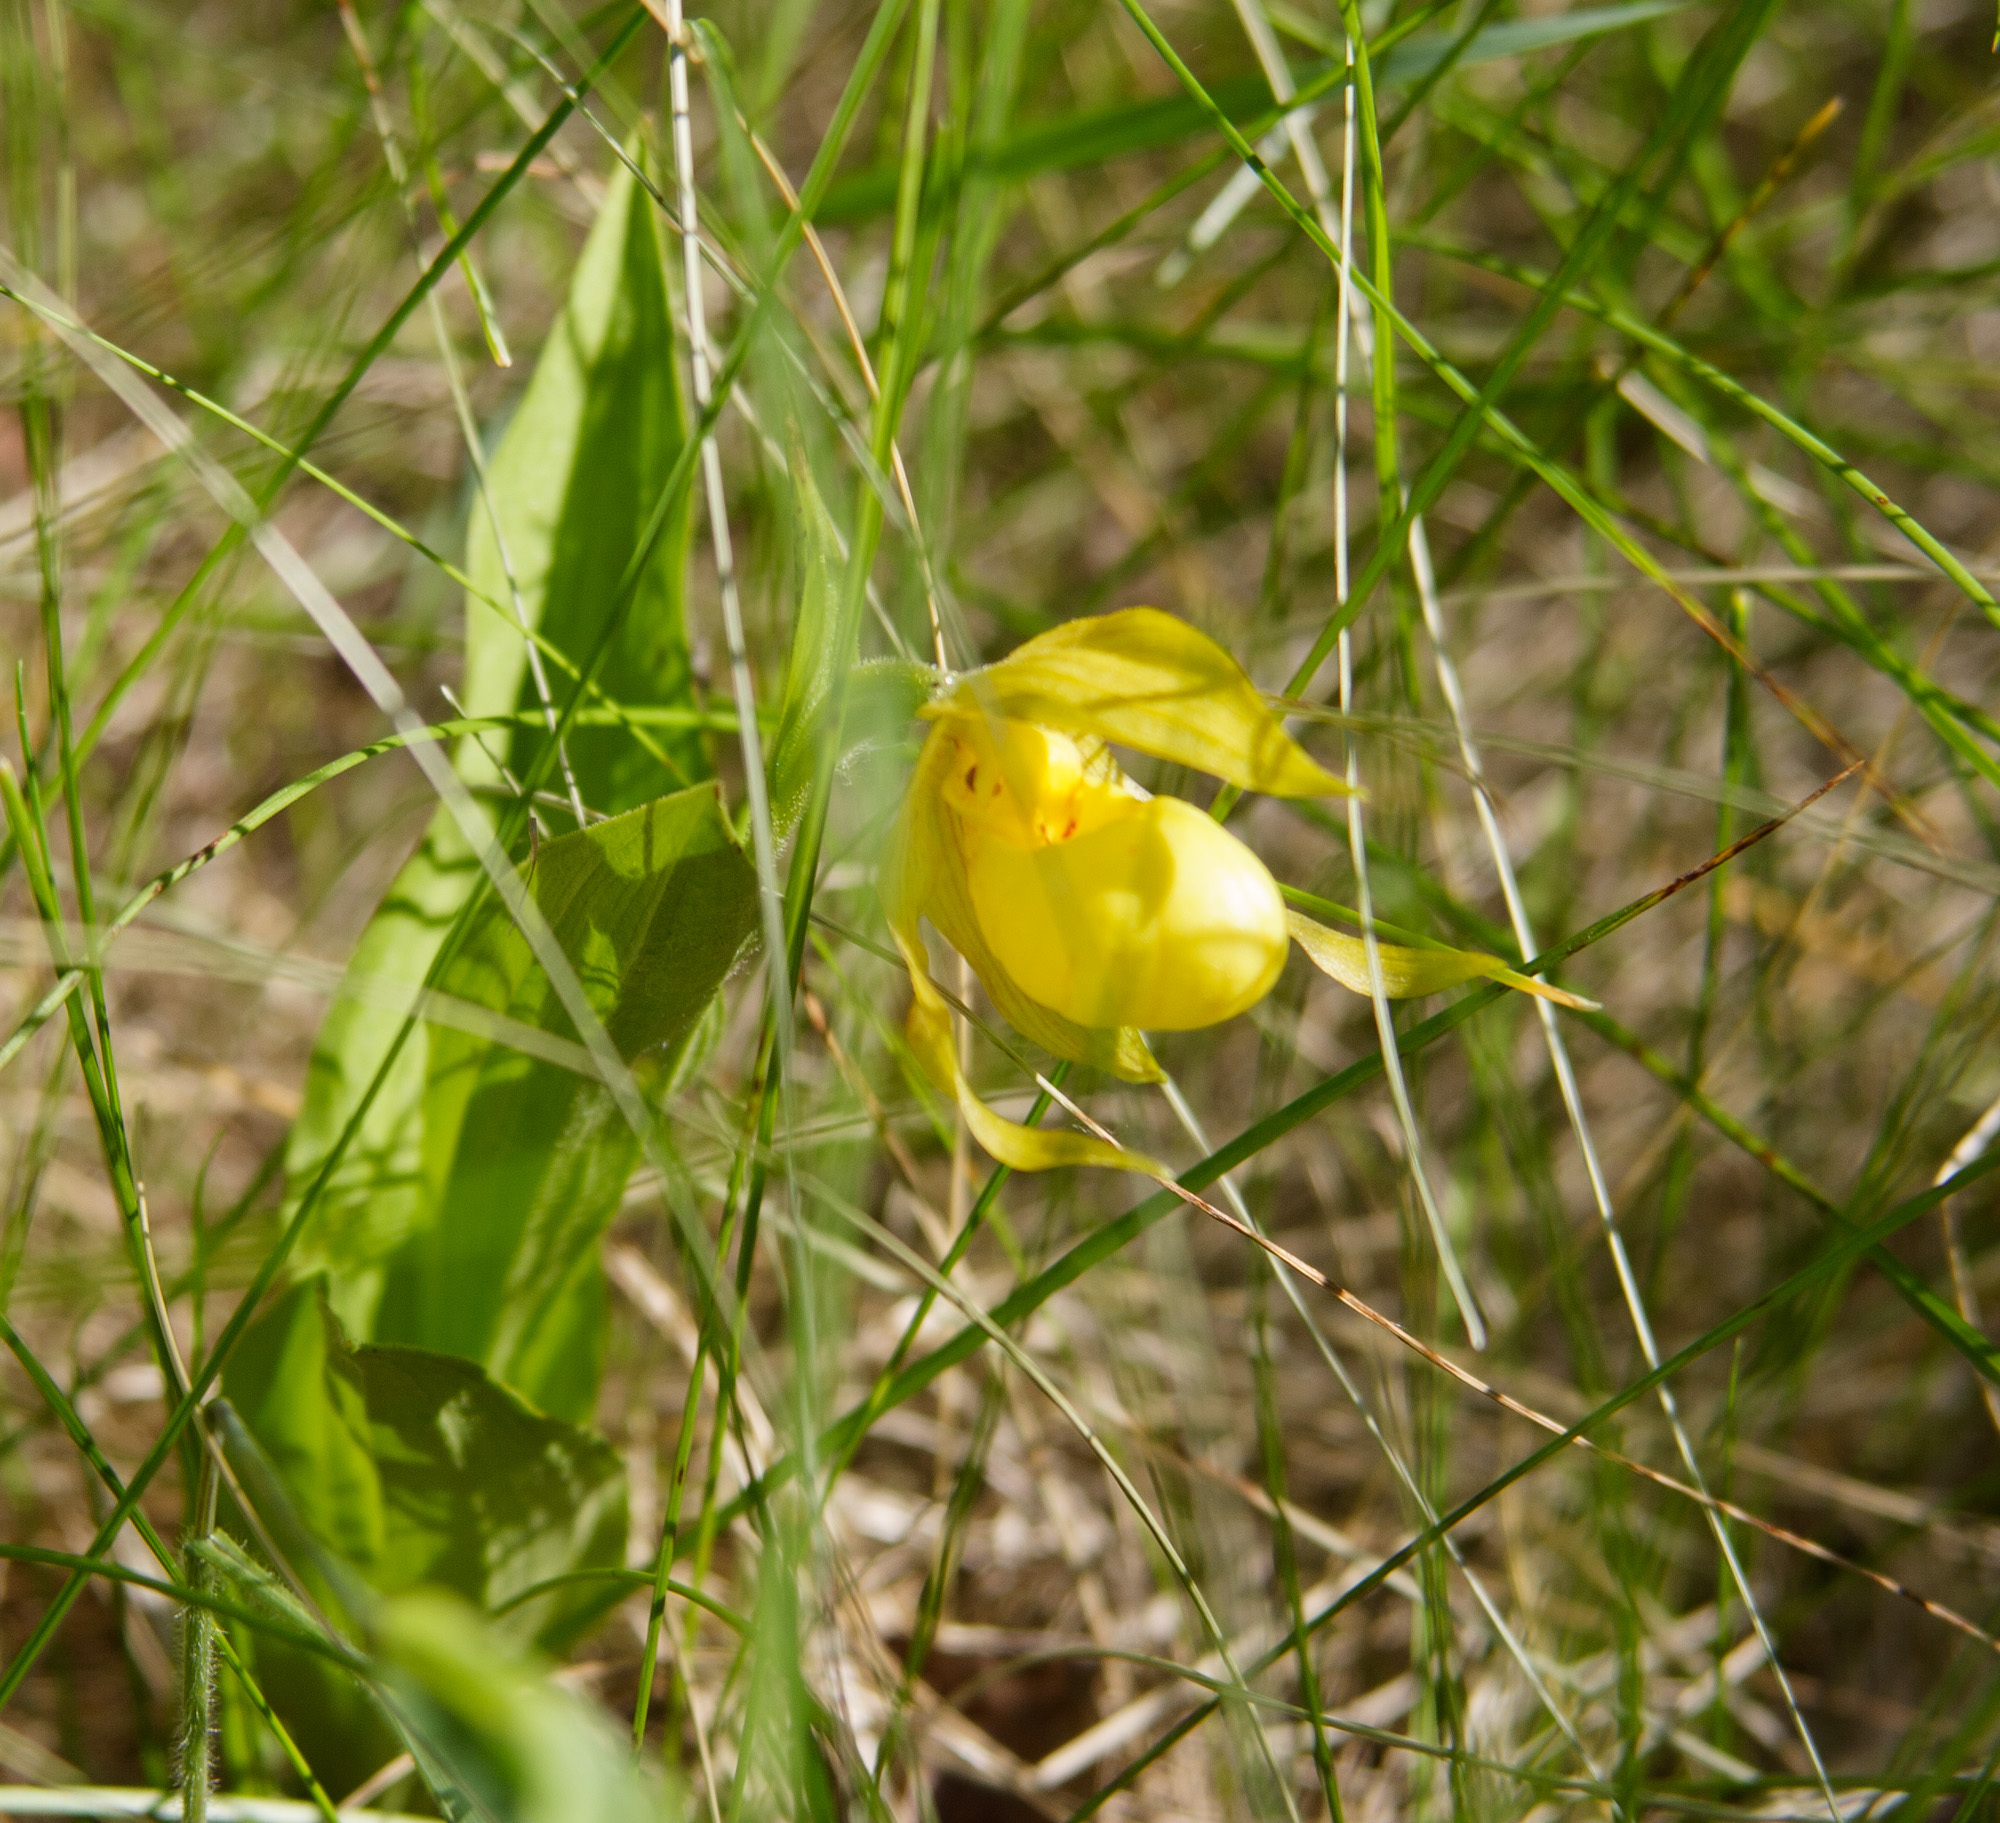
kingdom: Plantae
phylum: Tracheophyta
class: Liliopsida
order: Asparagales
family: Orchidaceae
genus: Cypripedium
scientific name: Cypripedium parviflorum
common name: American yellow lady's-slipper
